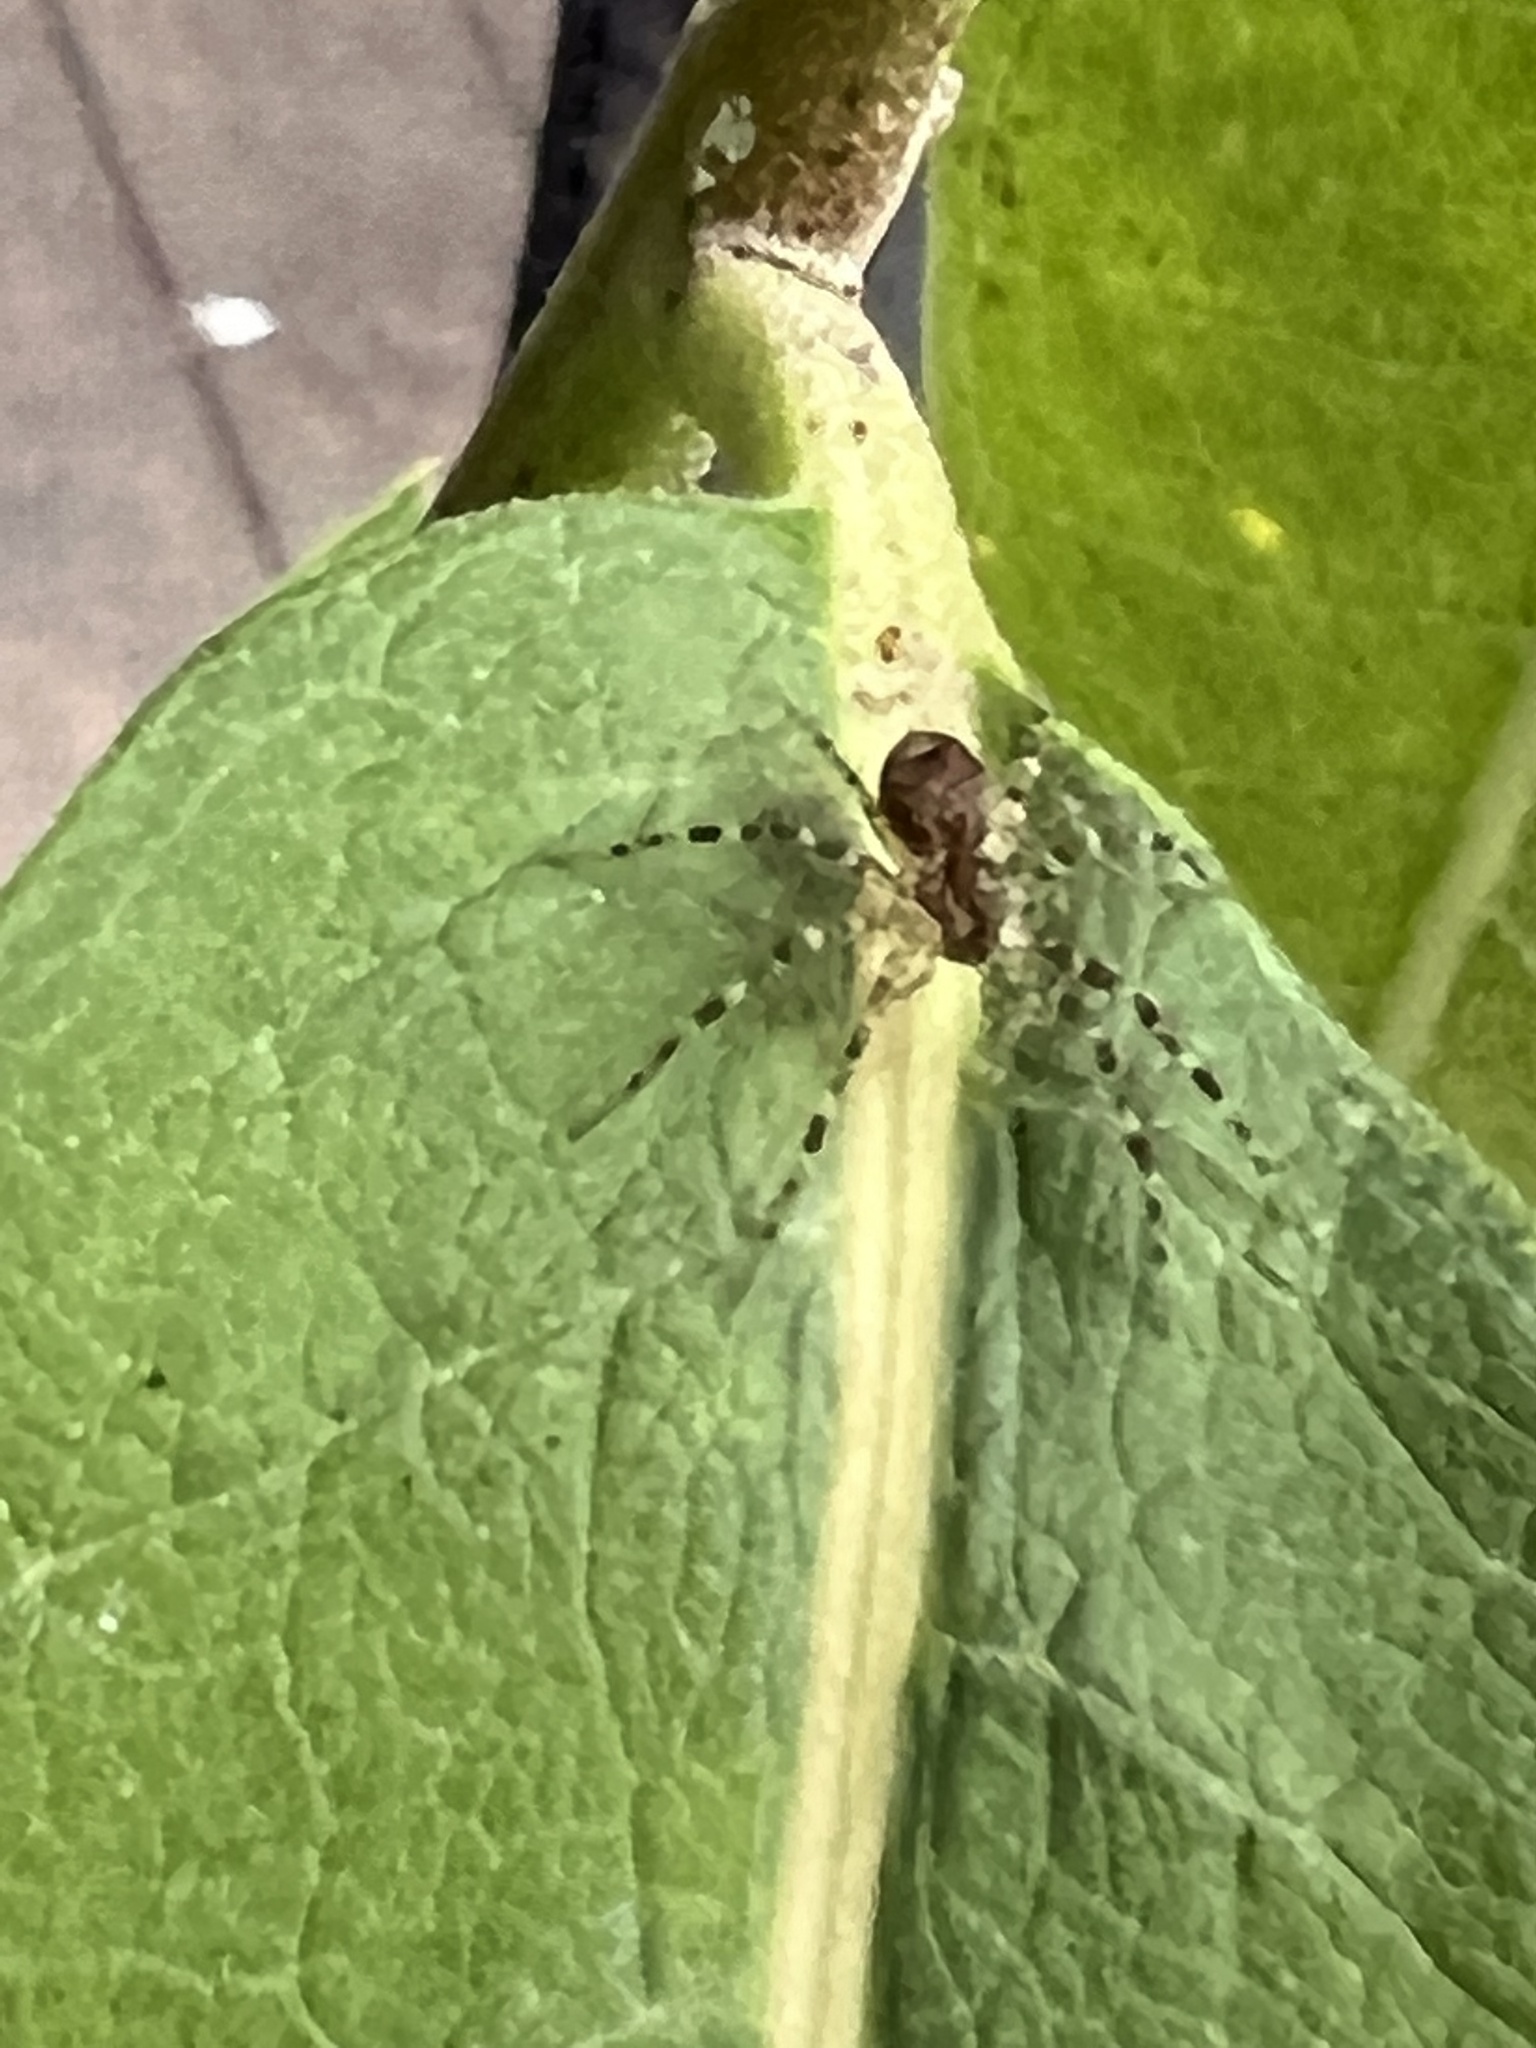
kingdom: Animalia
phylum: Arthropoda
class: Arachnida
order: Araneae
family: Pisauridae
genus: Dolomedes
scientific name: Dolomedes tenebrosus
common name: Dark fishing spider
